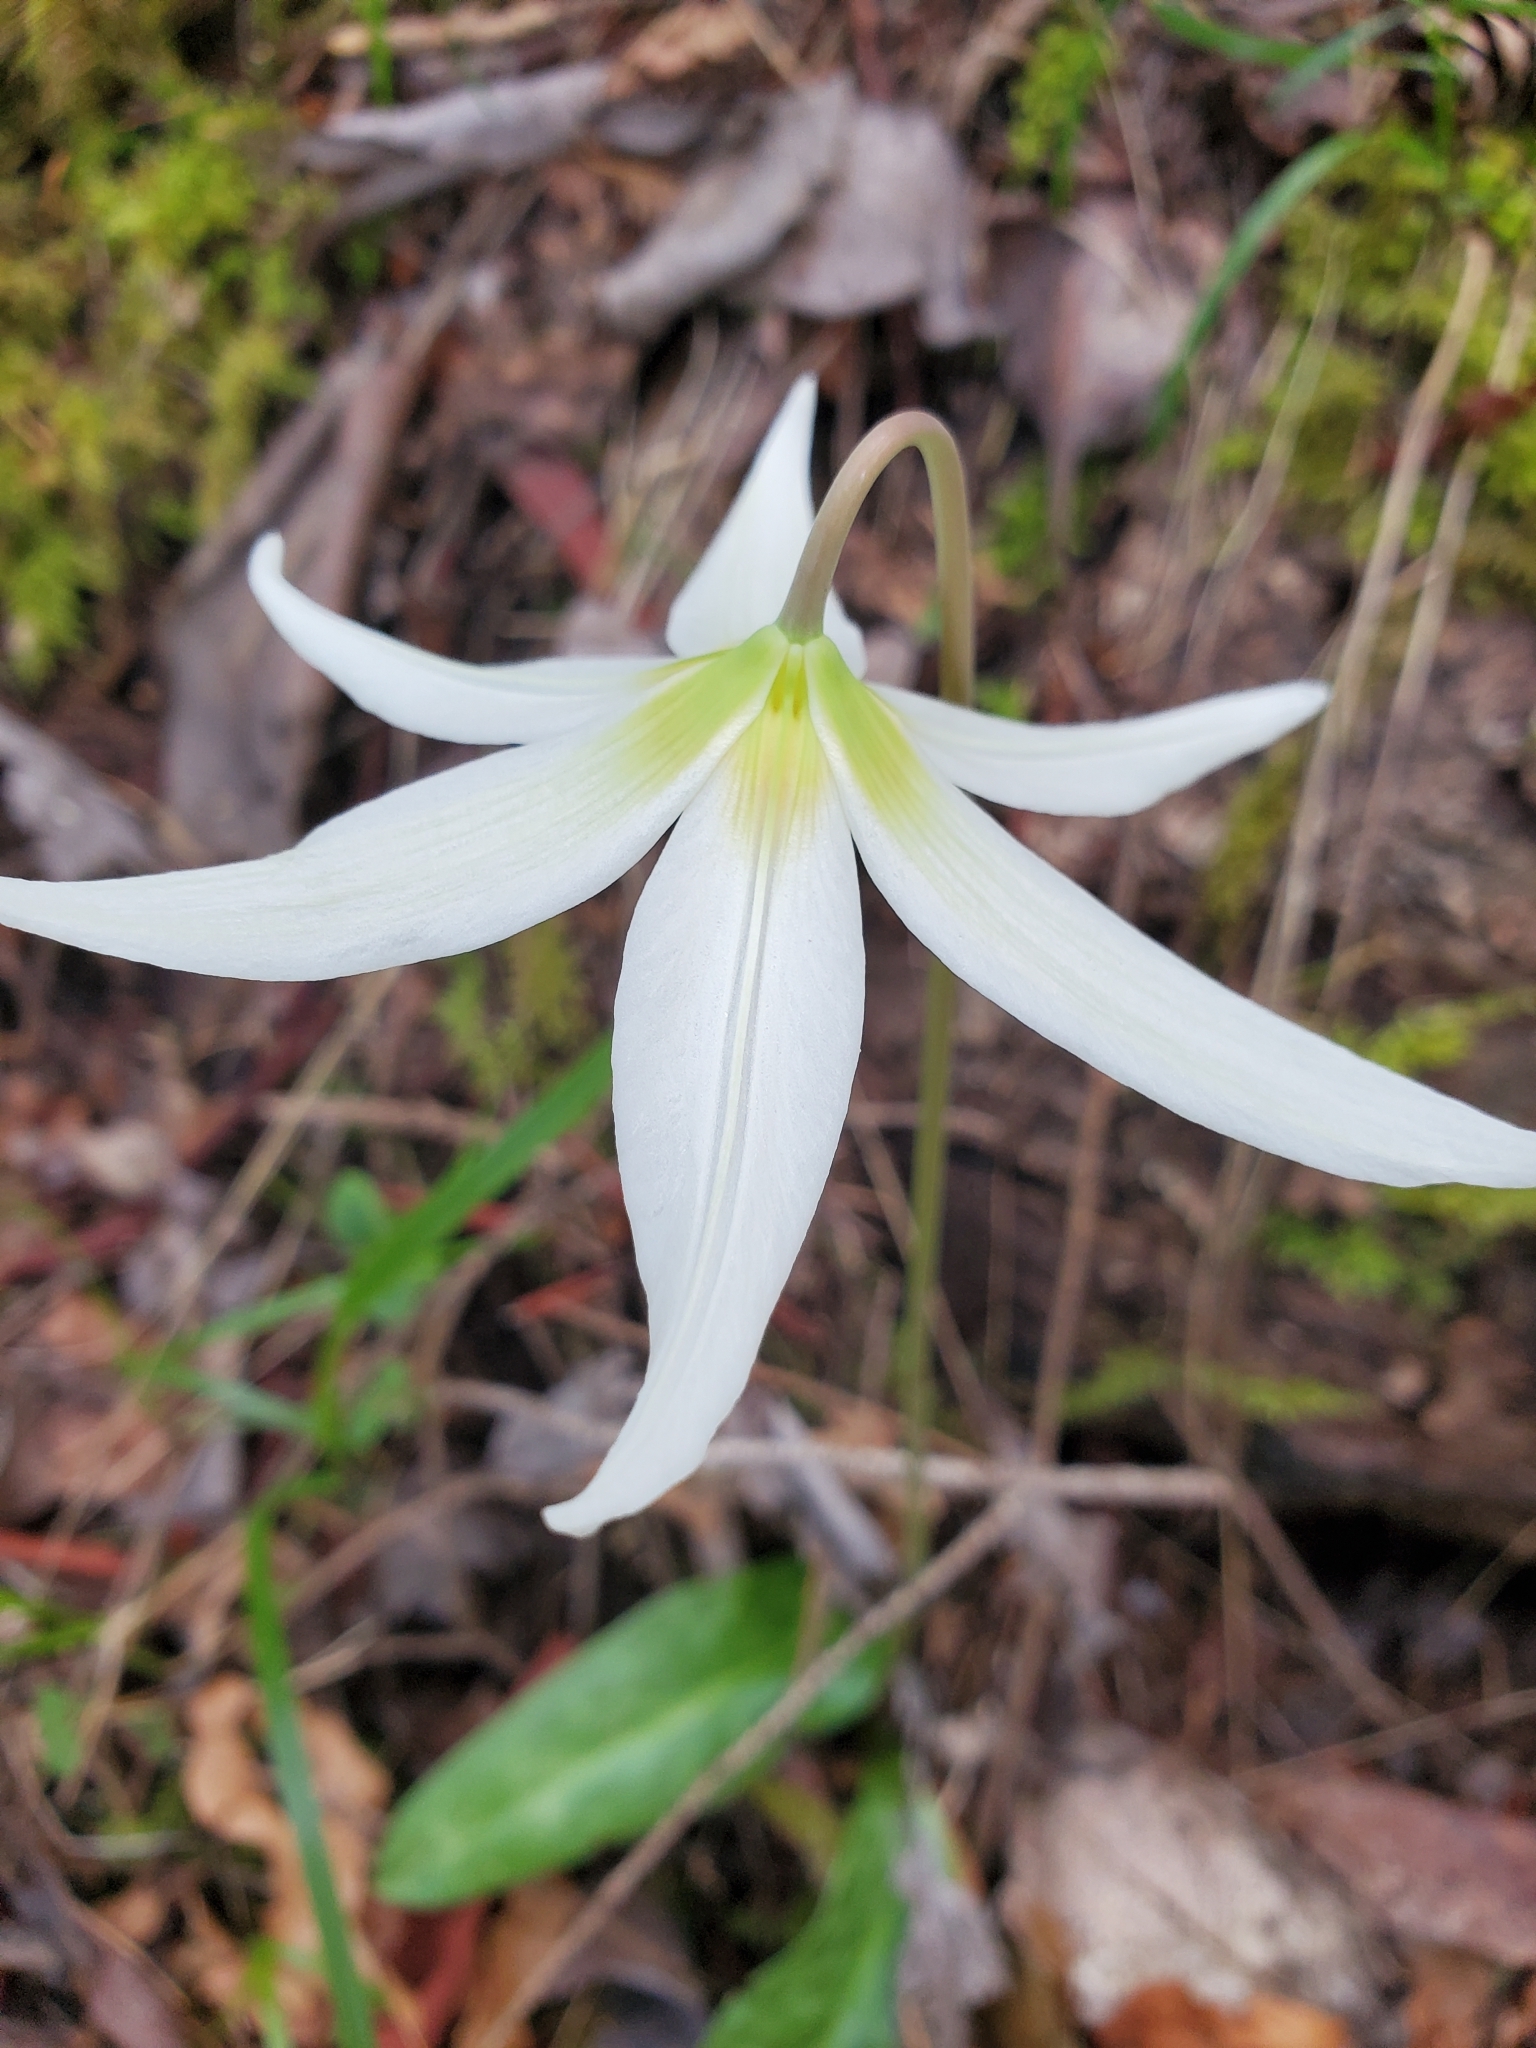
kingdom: Plantae
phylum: Tracheophyta
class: Liliopsida
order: Liliales
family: Liliaceae
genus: Erythronium
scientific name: Erythronium oregonum
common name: Giant adder's-tongue
